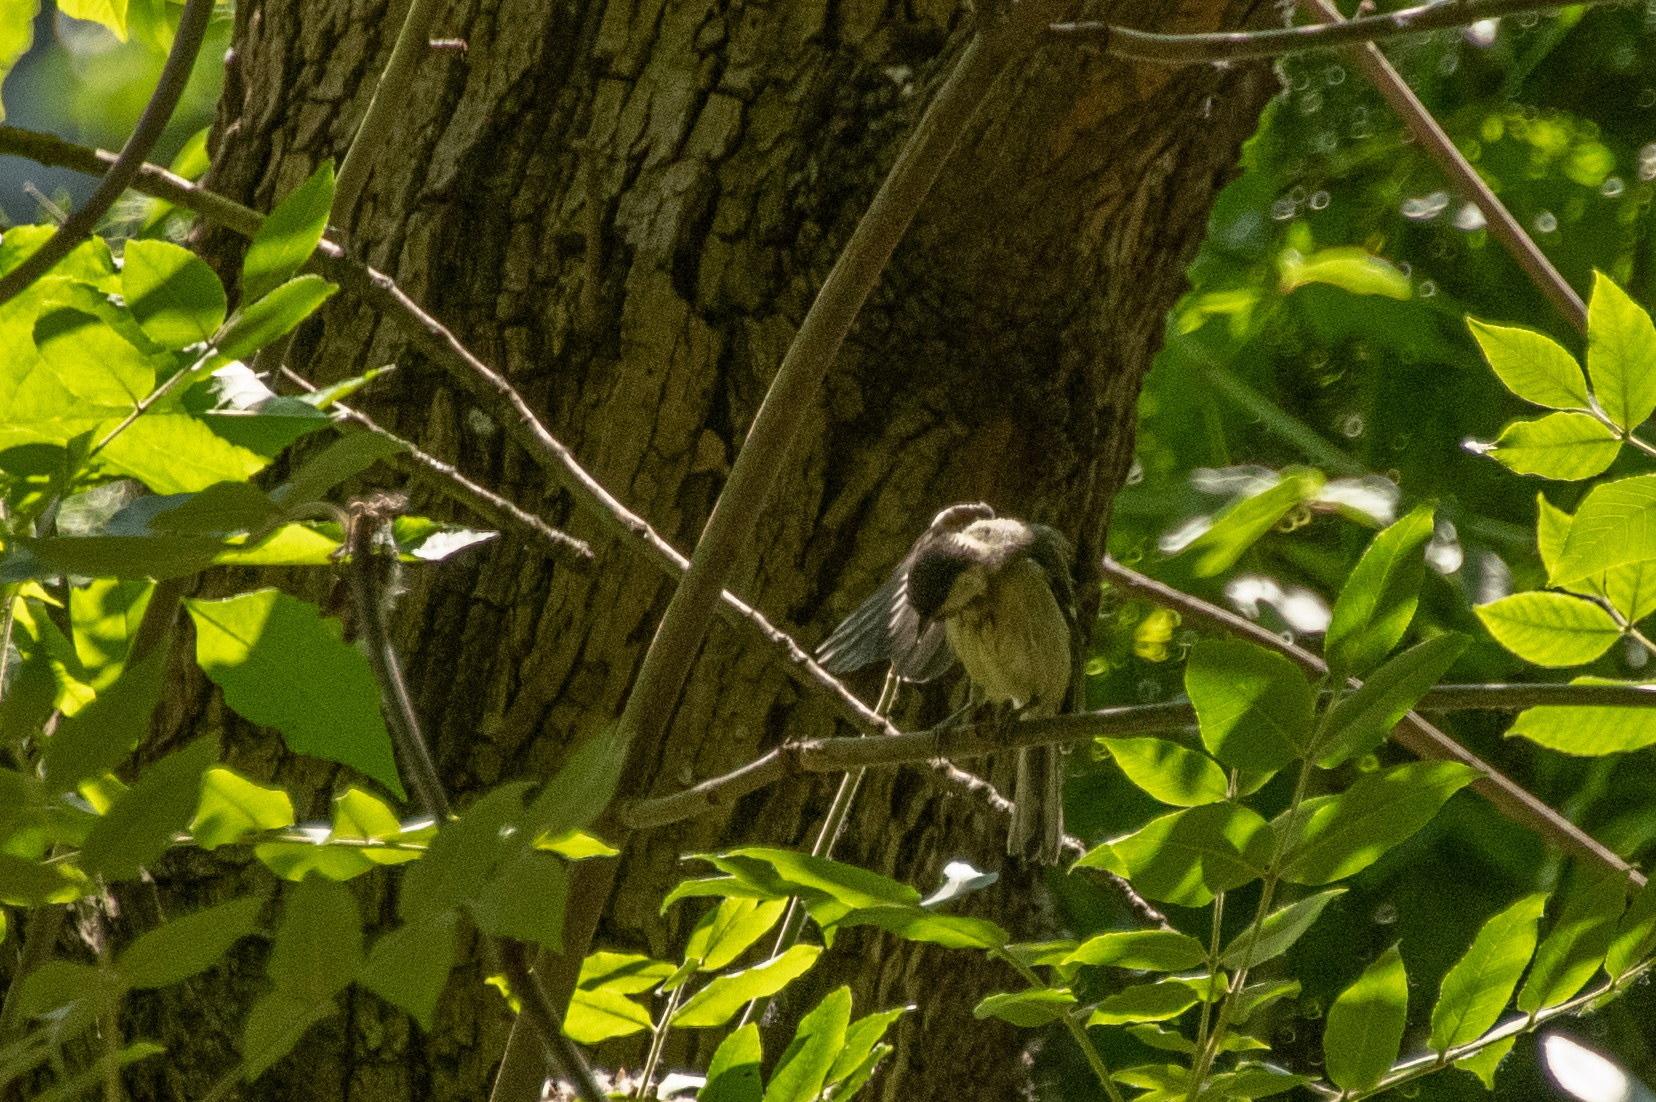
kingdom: Animalia
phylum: Chordata
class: Aves
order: Passeriformes
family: Paridae
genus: Parus
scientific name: Parus major
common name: Great tit
